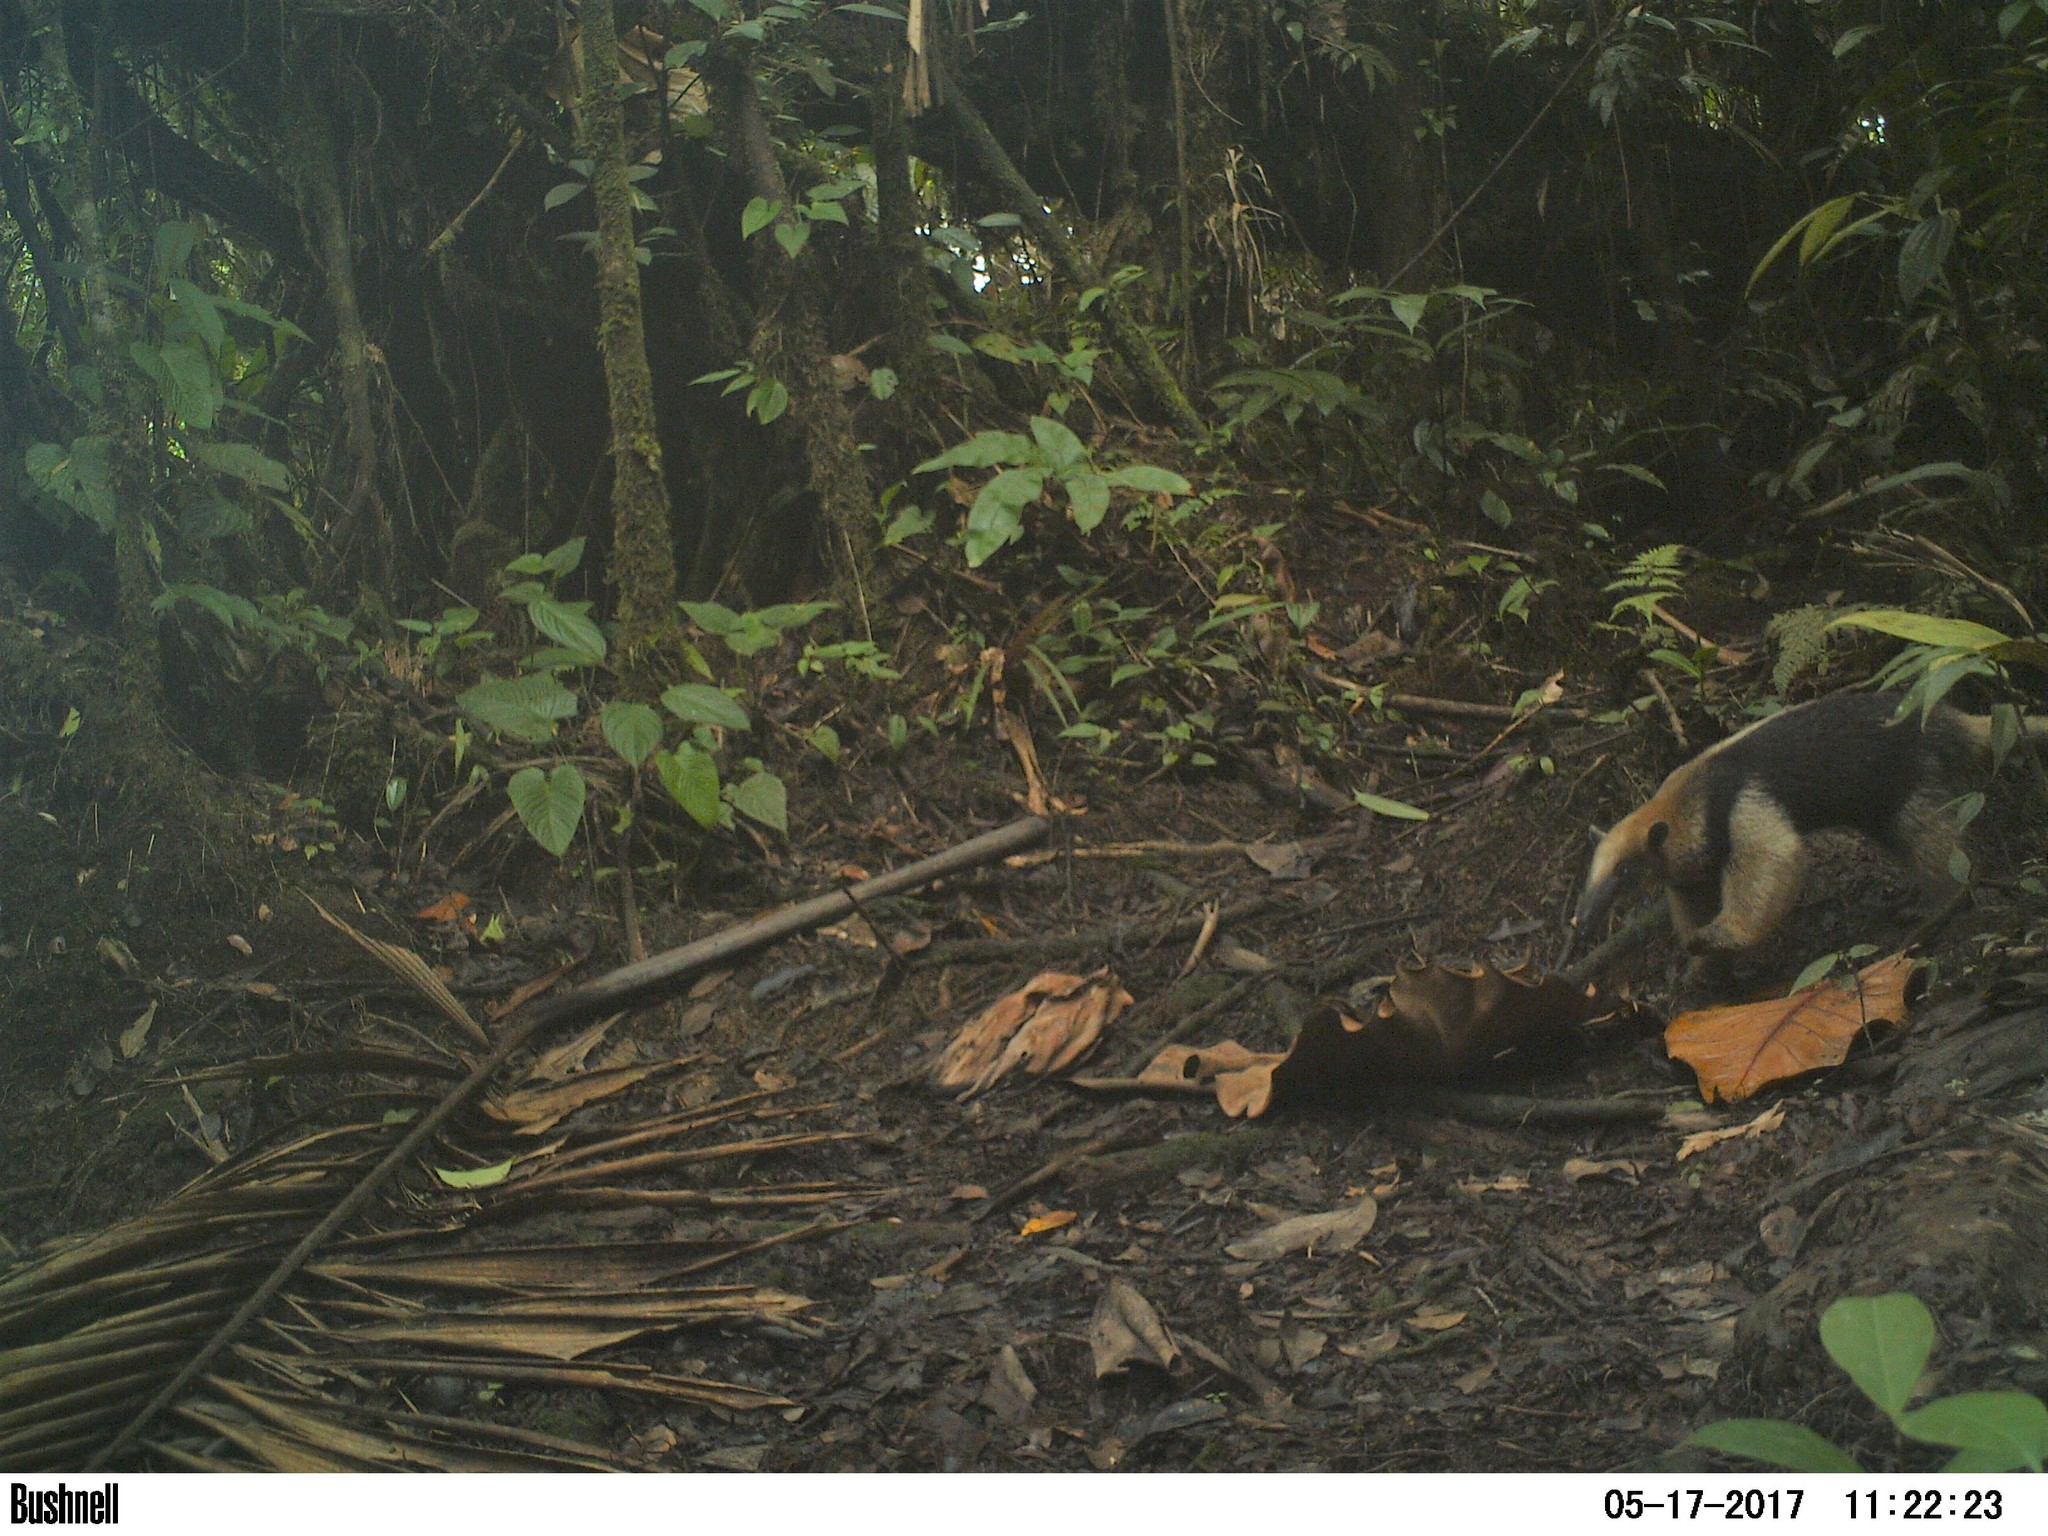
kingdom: Animalia
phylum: Chordata
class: Mammalia
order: Pilosa
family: Myrmecophagidae
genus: Tamandua
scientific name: Tamandua mexicana
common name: Northern tamandua
